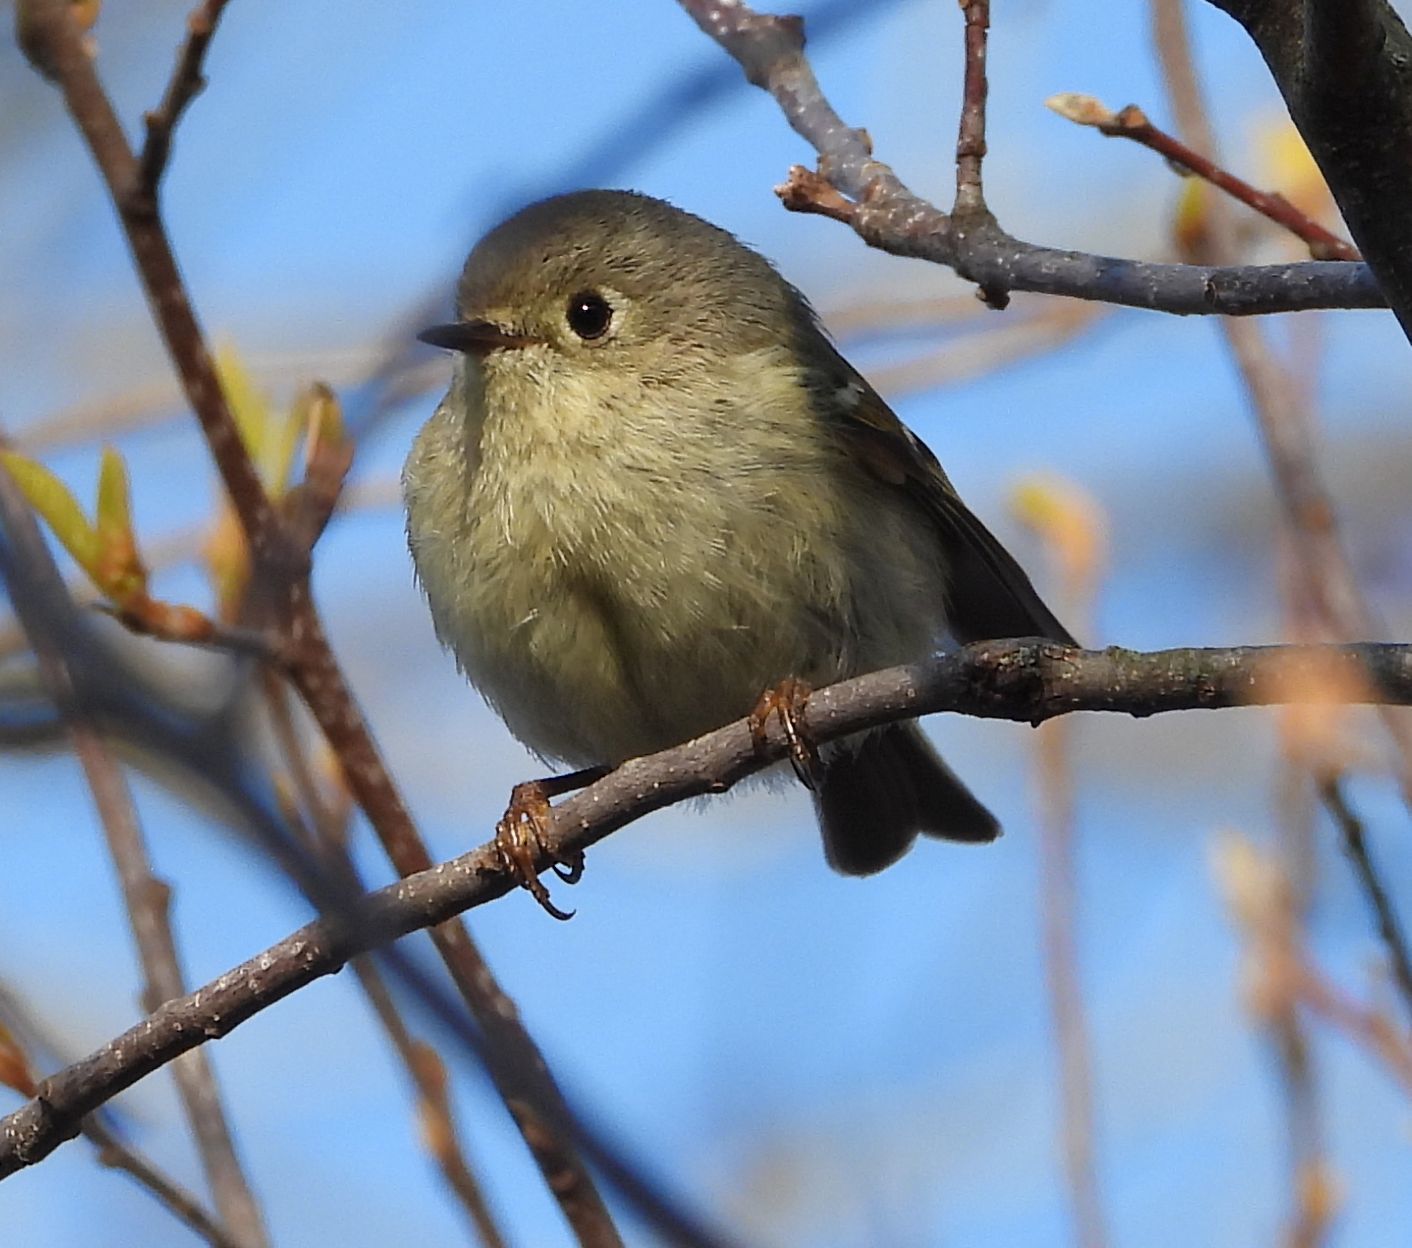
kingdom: Animalia
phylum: Chordata
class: Aves
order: Passeriformes
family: Regulidae
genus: Regulus
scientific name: Regulus calendula
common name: Ruby-crowned kinglet
